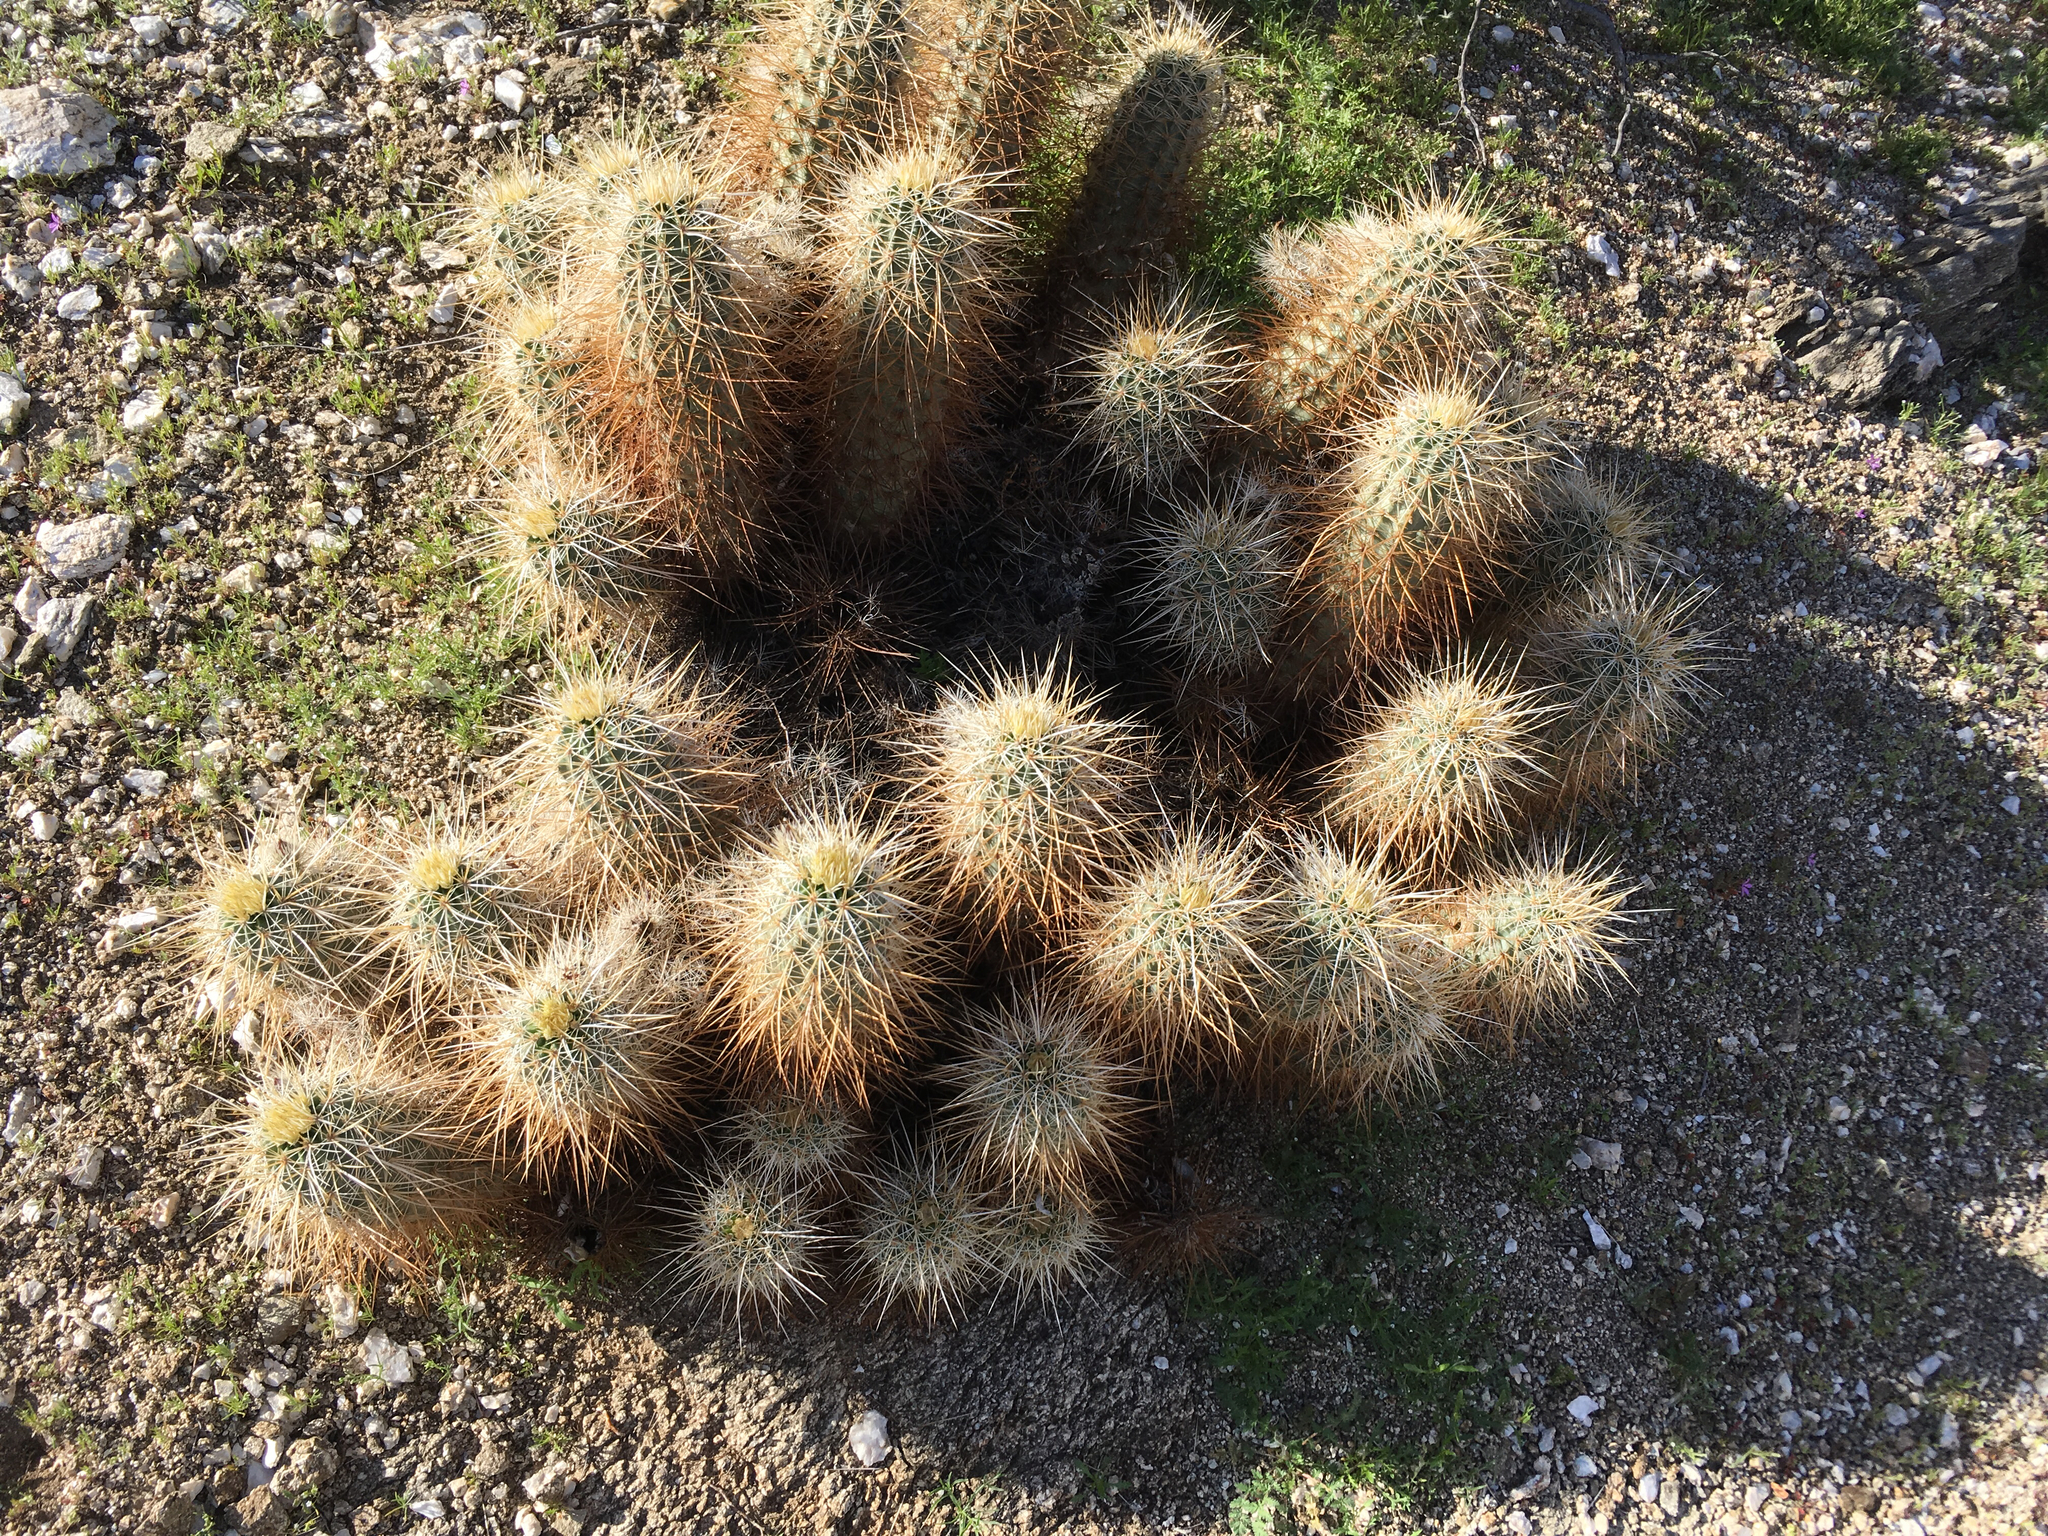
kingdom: Plantae
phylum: Tracheophyta
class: Magnoliopsida
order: Caryophyllales
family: Cactaceae
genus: Echinocereus
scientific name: Echinocereus engelmannii
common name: Engelmann's hedgehog cactus
